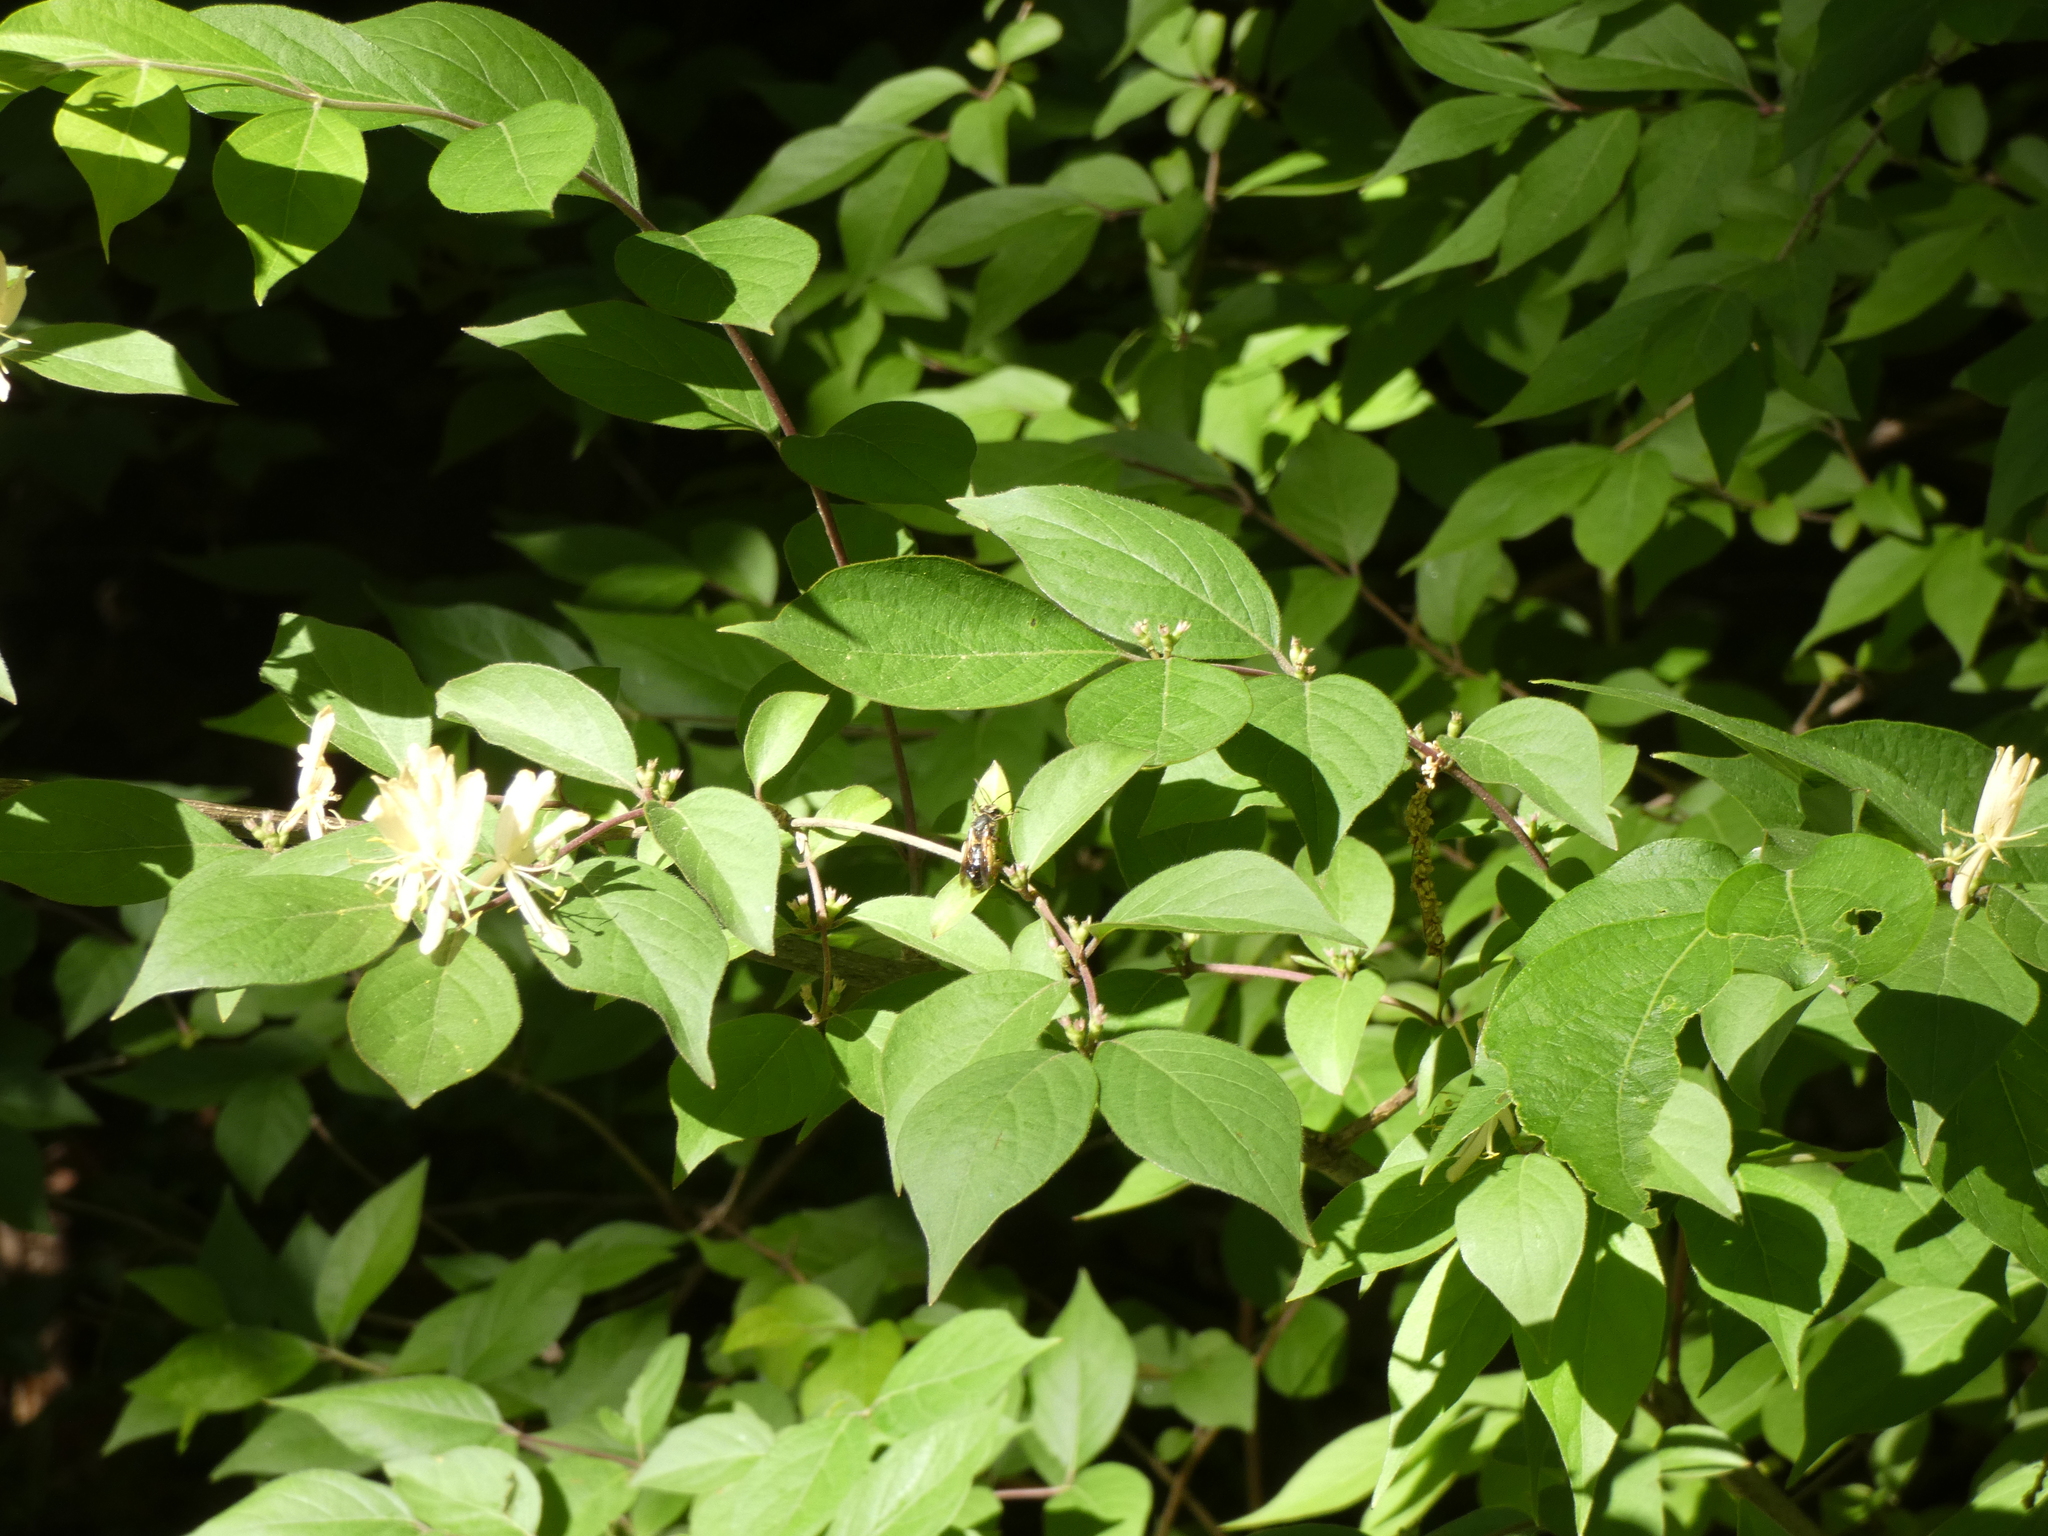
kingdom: Plantae
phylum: Tracheophyta
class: Magnoliopsida
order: Dipsacales
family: Caprifoliaceae
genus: Lonicera
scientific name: Lonicera maackii
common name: Amur honeysuckle
